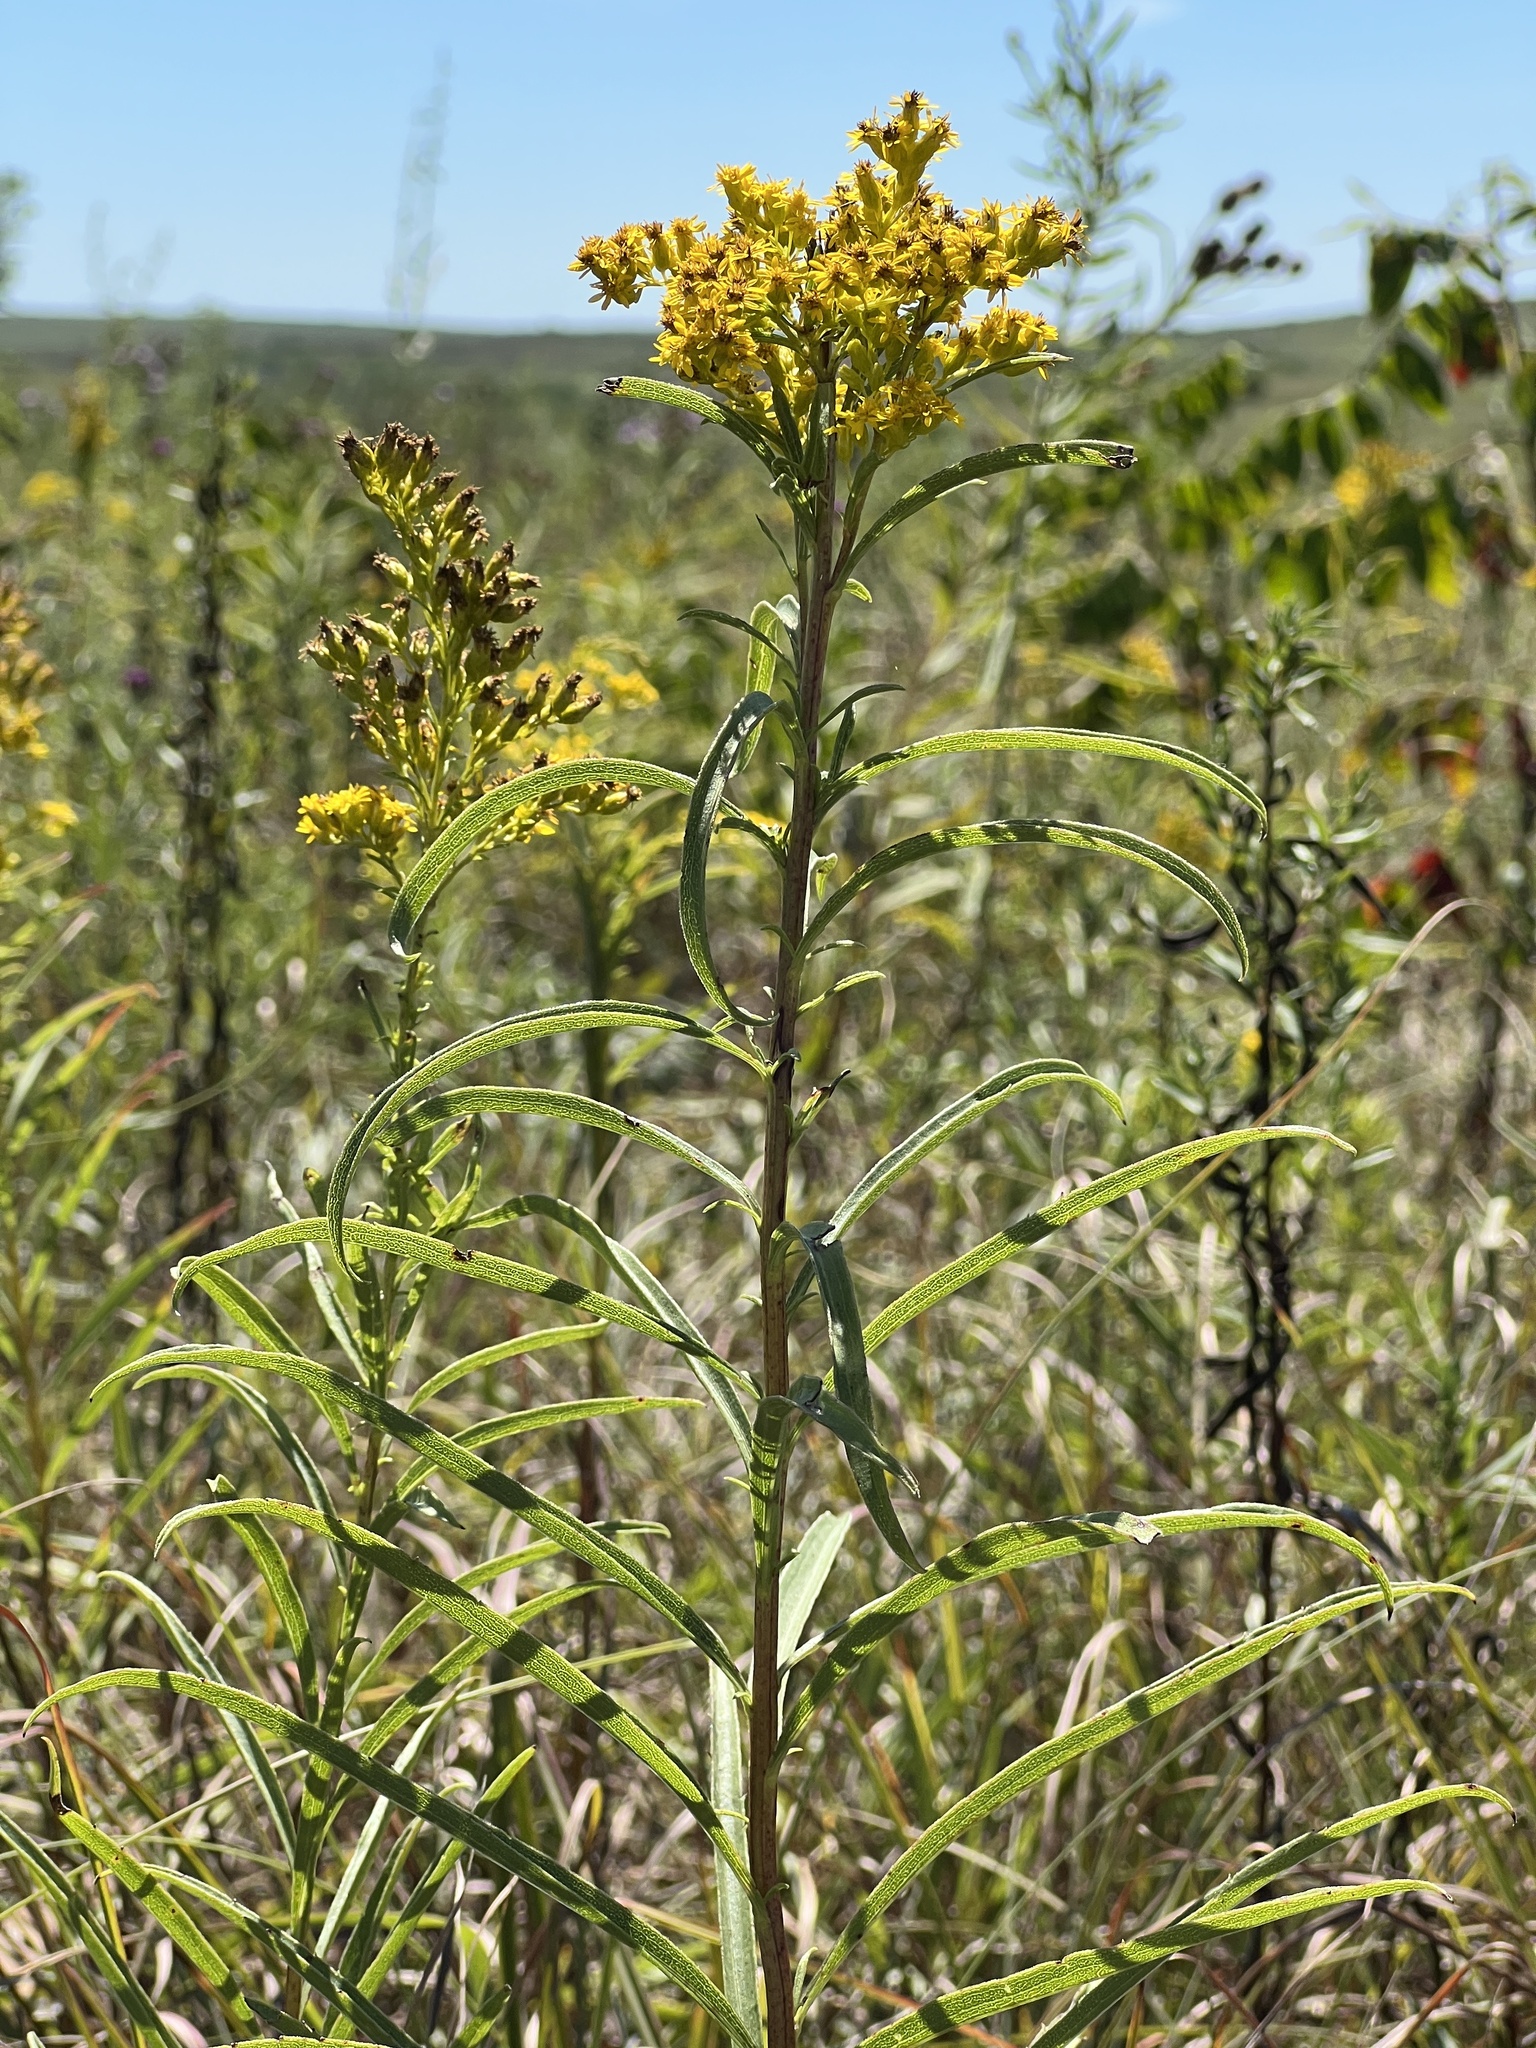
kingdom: Plantae
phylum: Tracheophyta
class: Magnoliopsida
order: Asterales
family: Asteraceae
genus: Solidago
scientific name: Solidago missouriensis
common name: Prairie goldenrod
